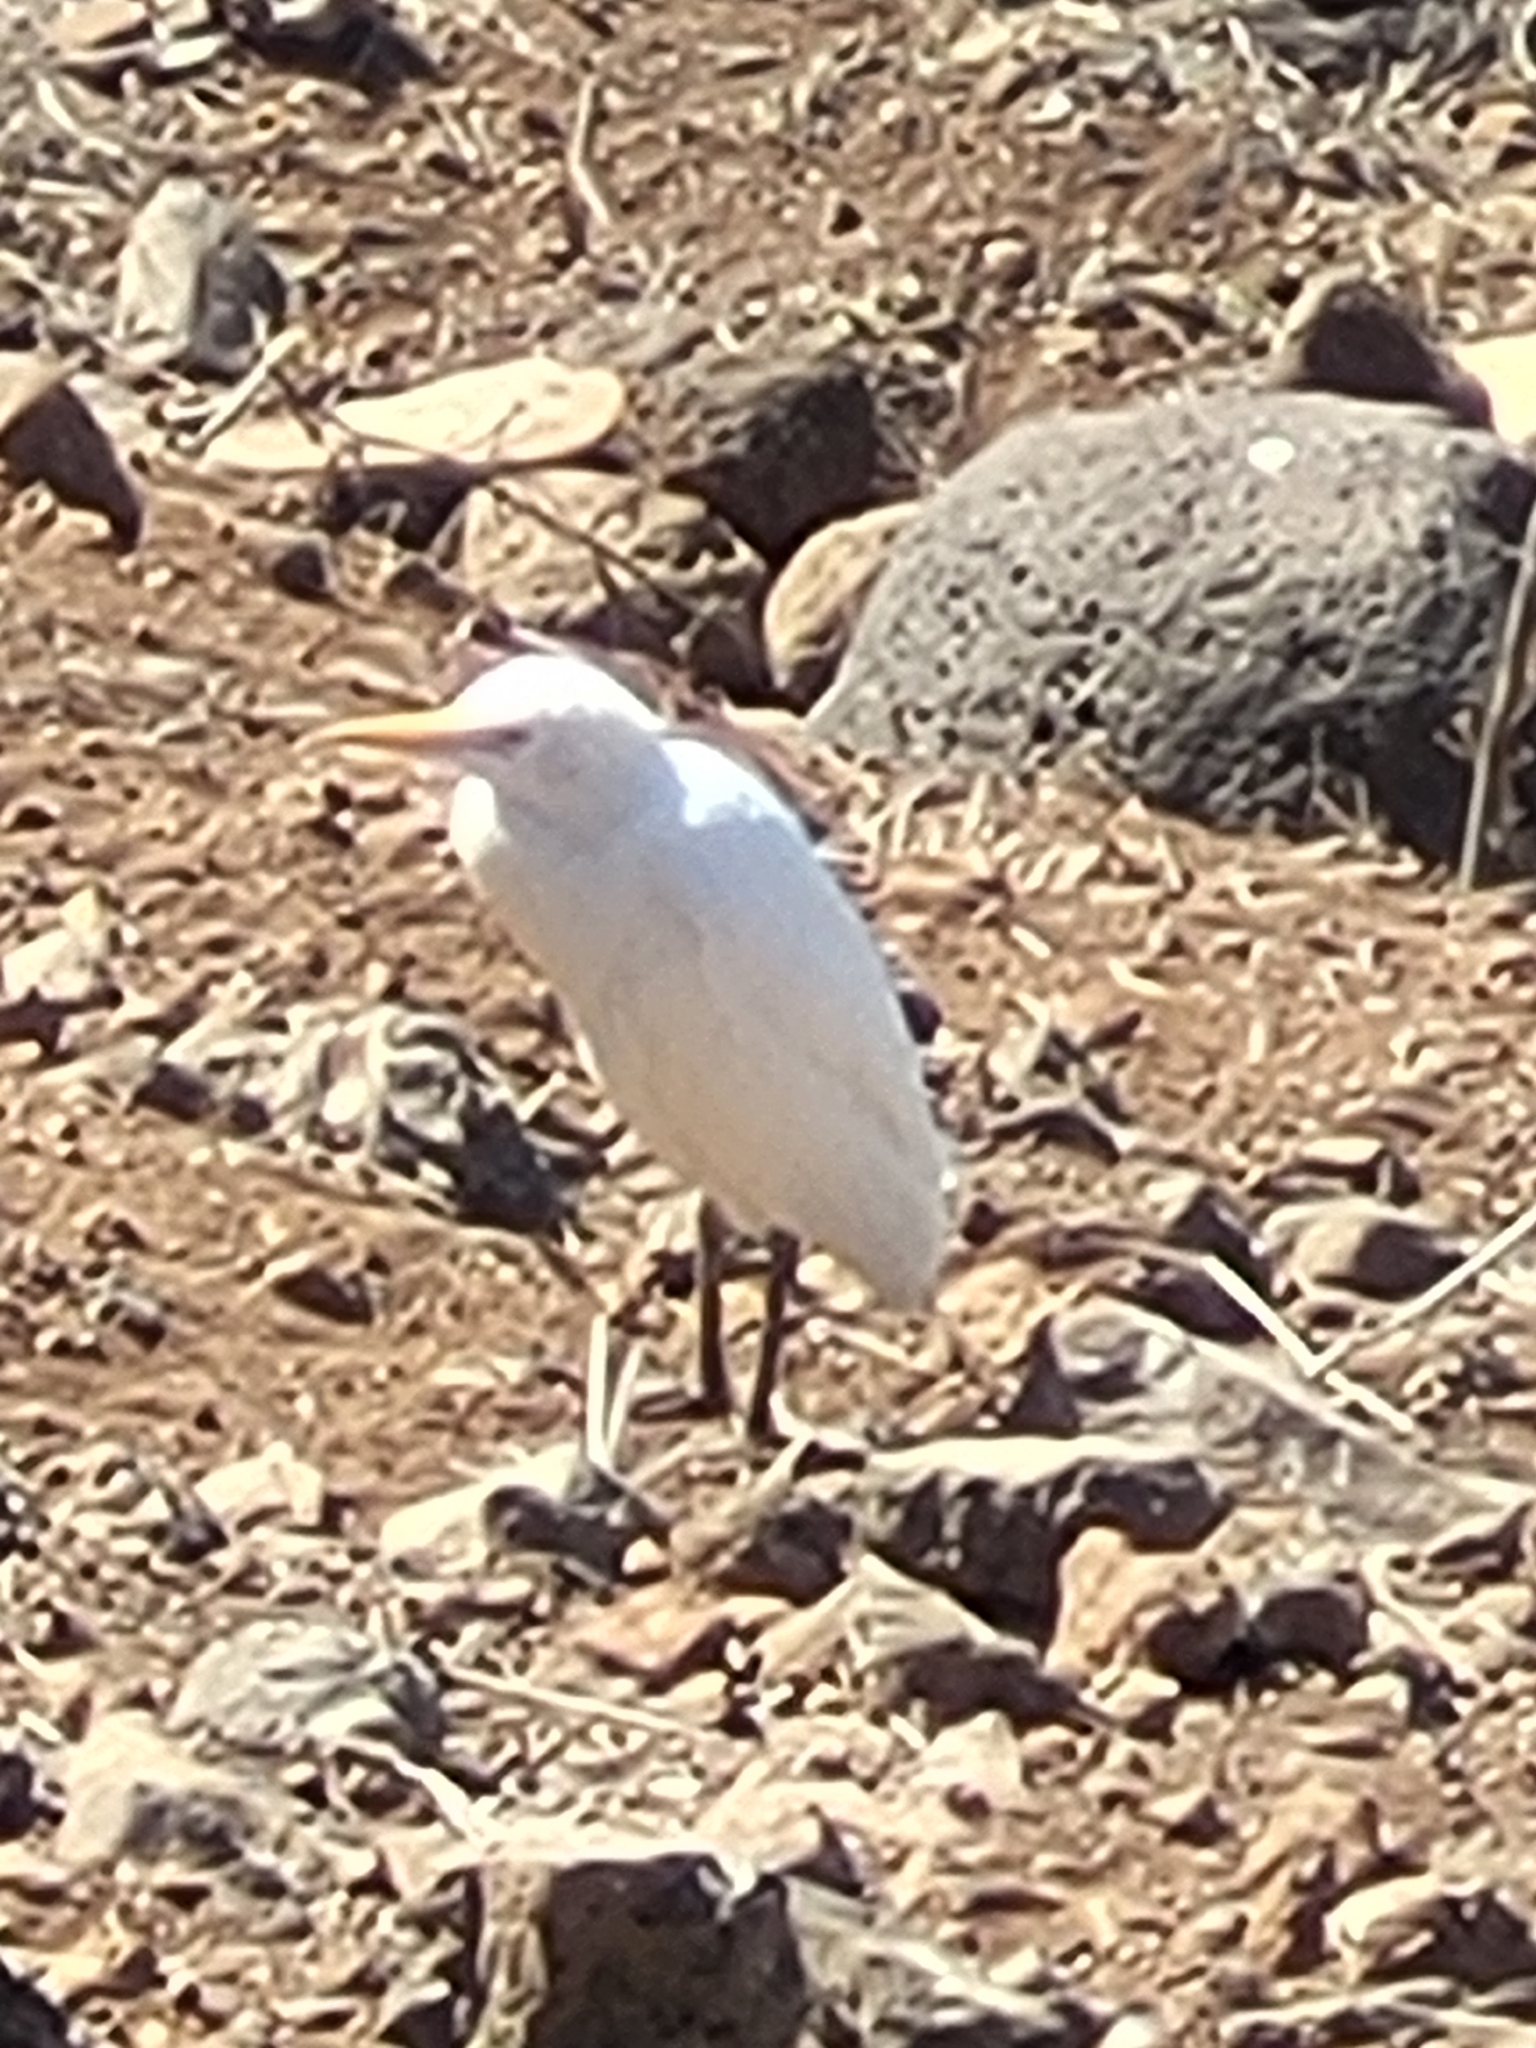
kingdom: Animalia
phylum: Chordata
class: Aves
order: Pelecaniformes
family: Ardeidae
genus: Bubulcus
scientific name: Bubulcus ibis
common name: Cattle egret
